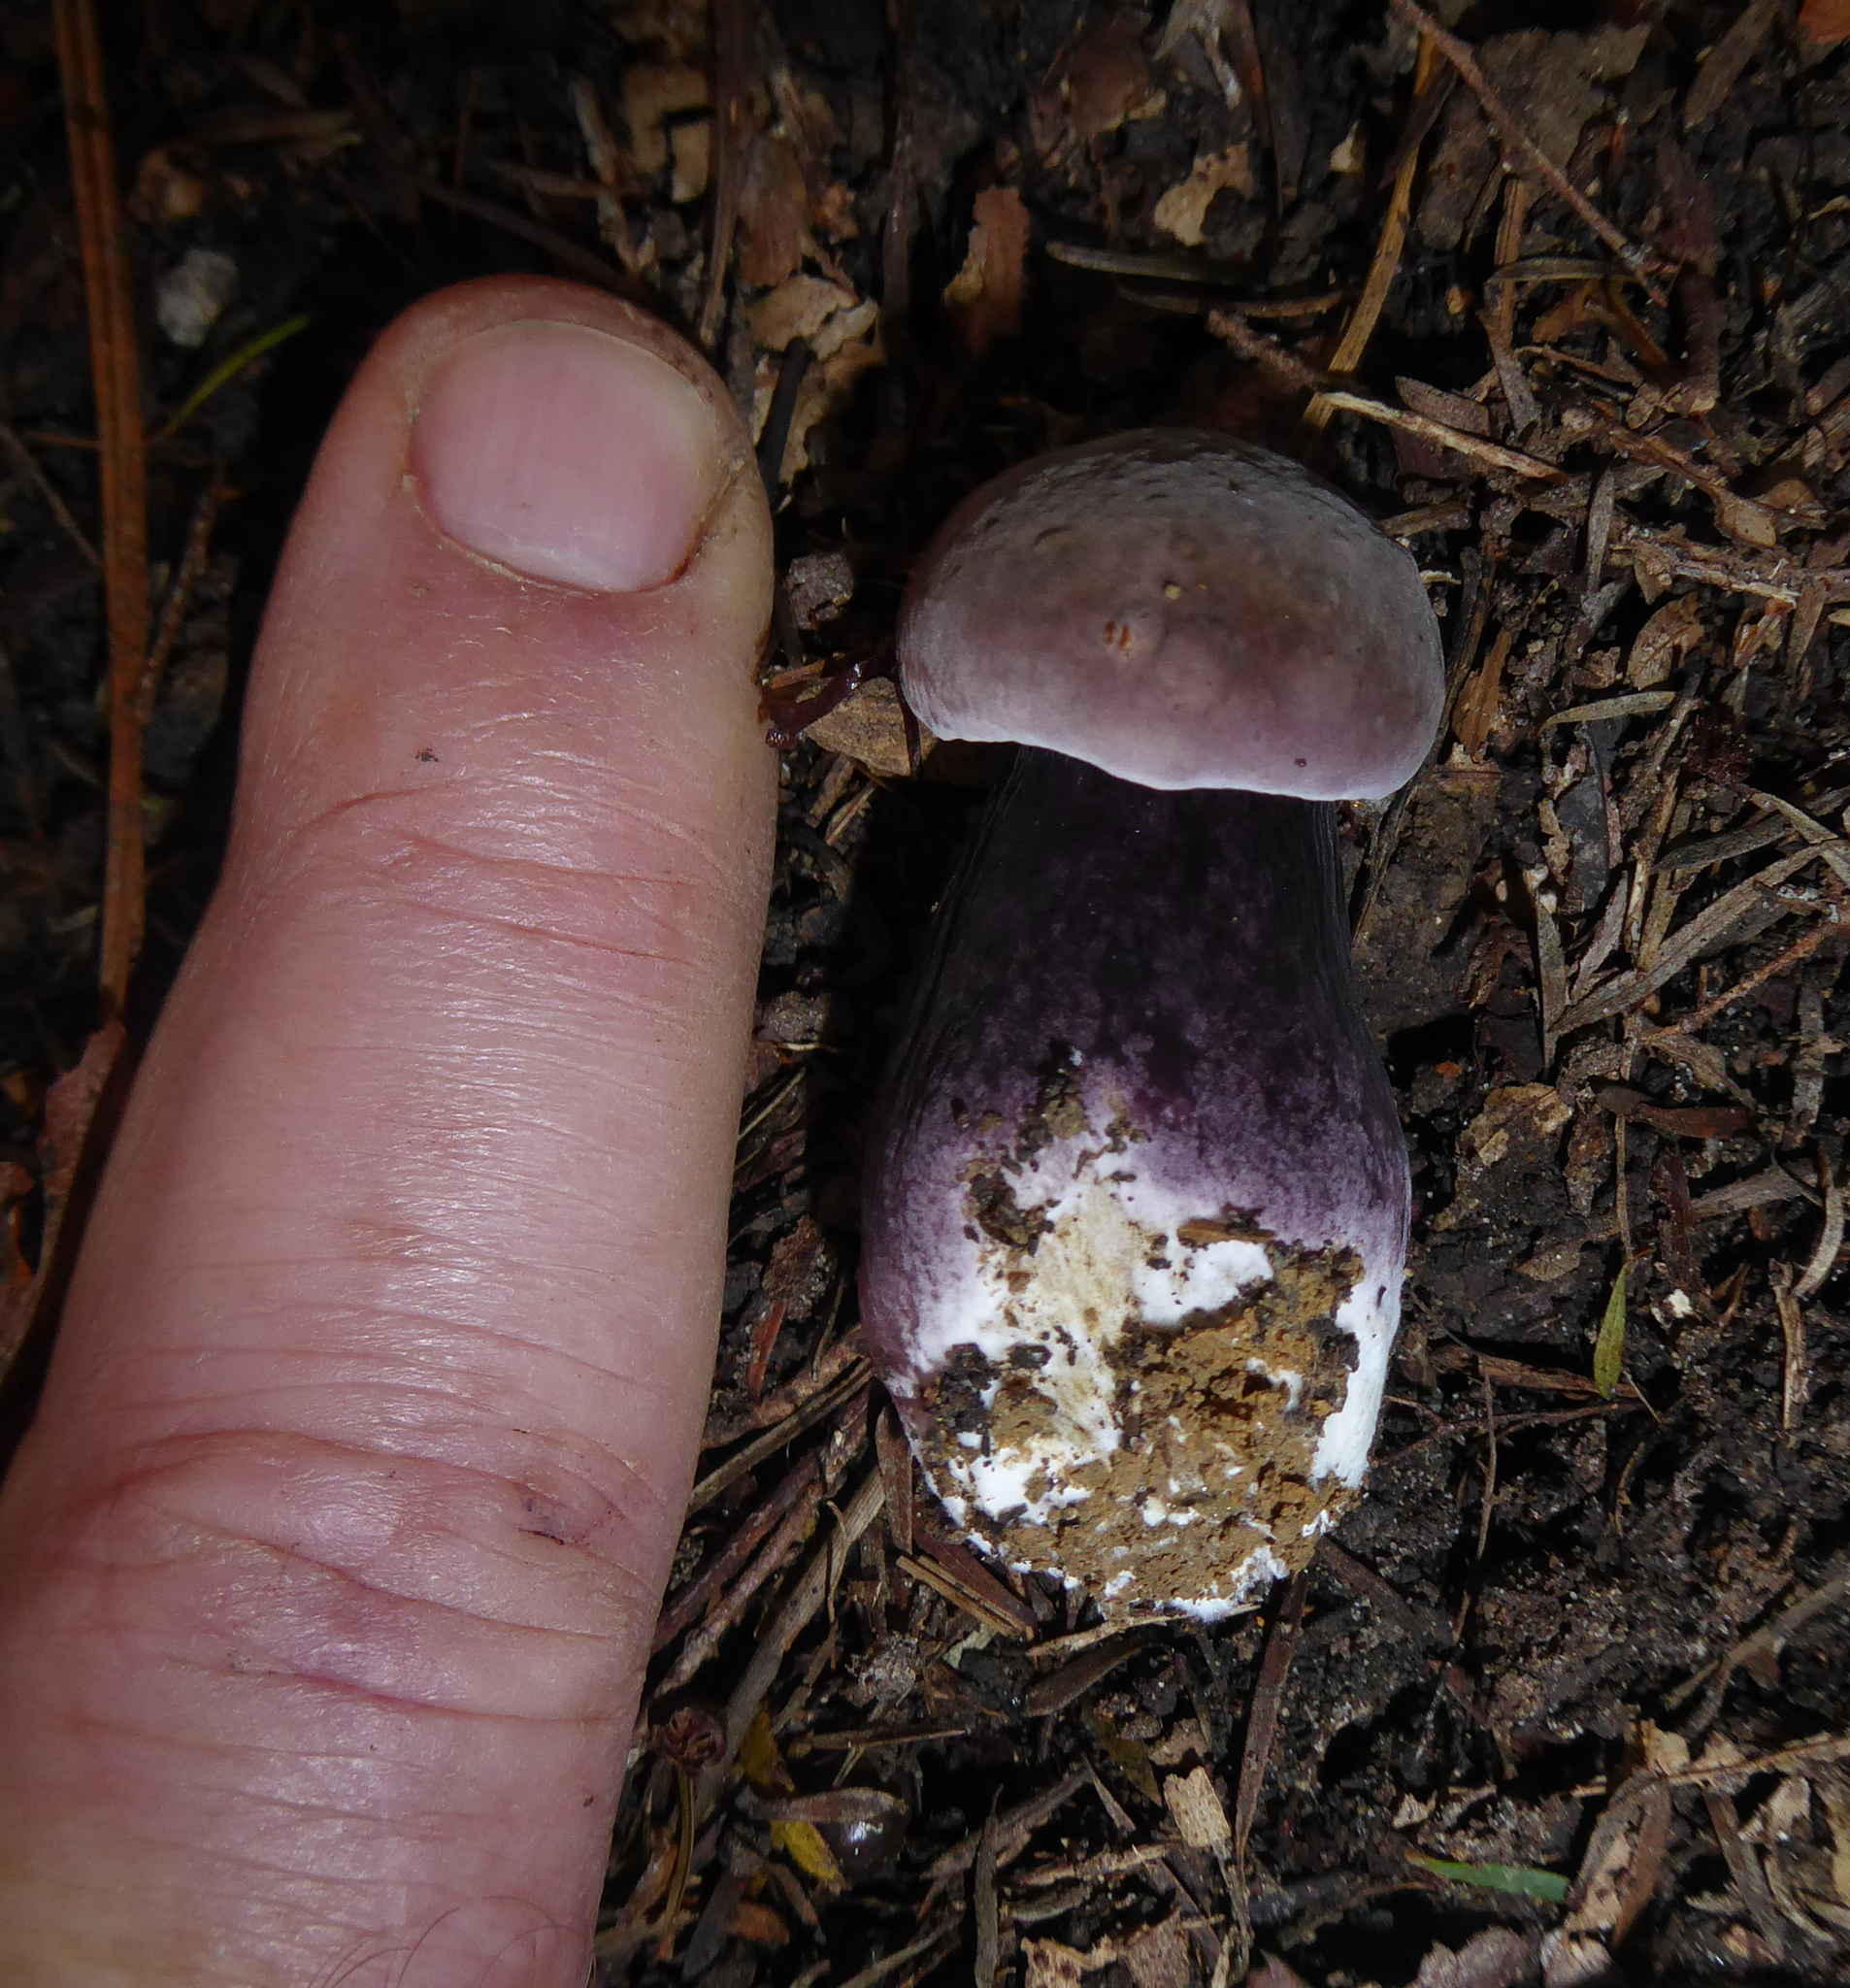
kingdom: Fungi
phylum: Basidiomycota
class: Agaricomycetes
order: Boletales
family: Boletaceae
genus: Porphyrellus
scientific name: Porphyrellus formosus
